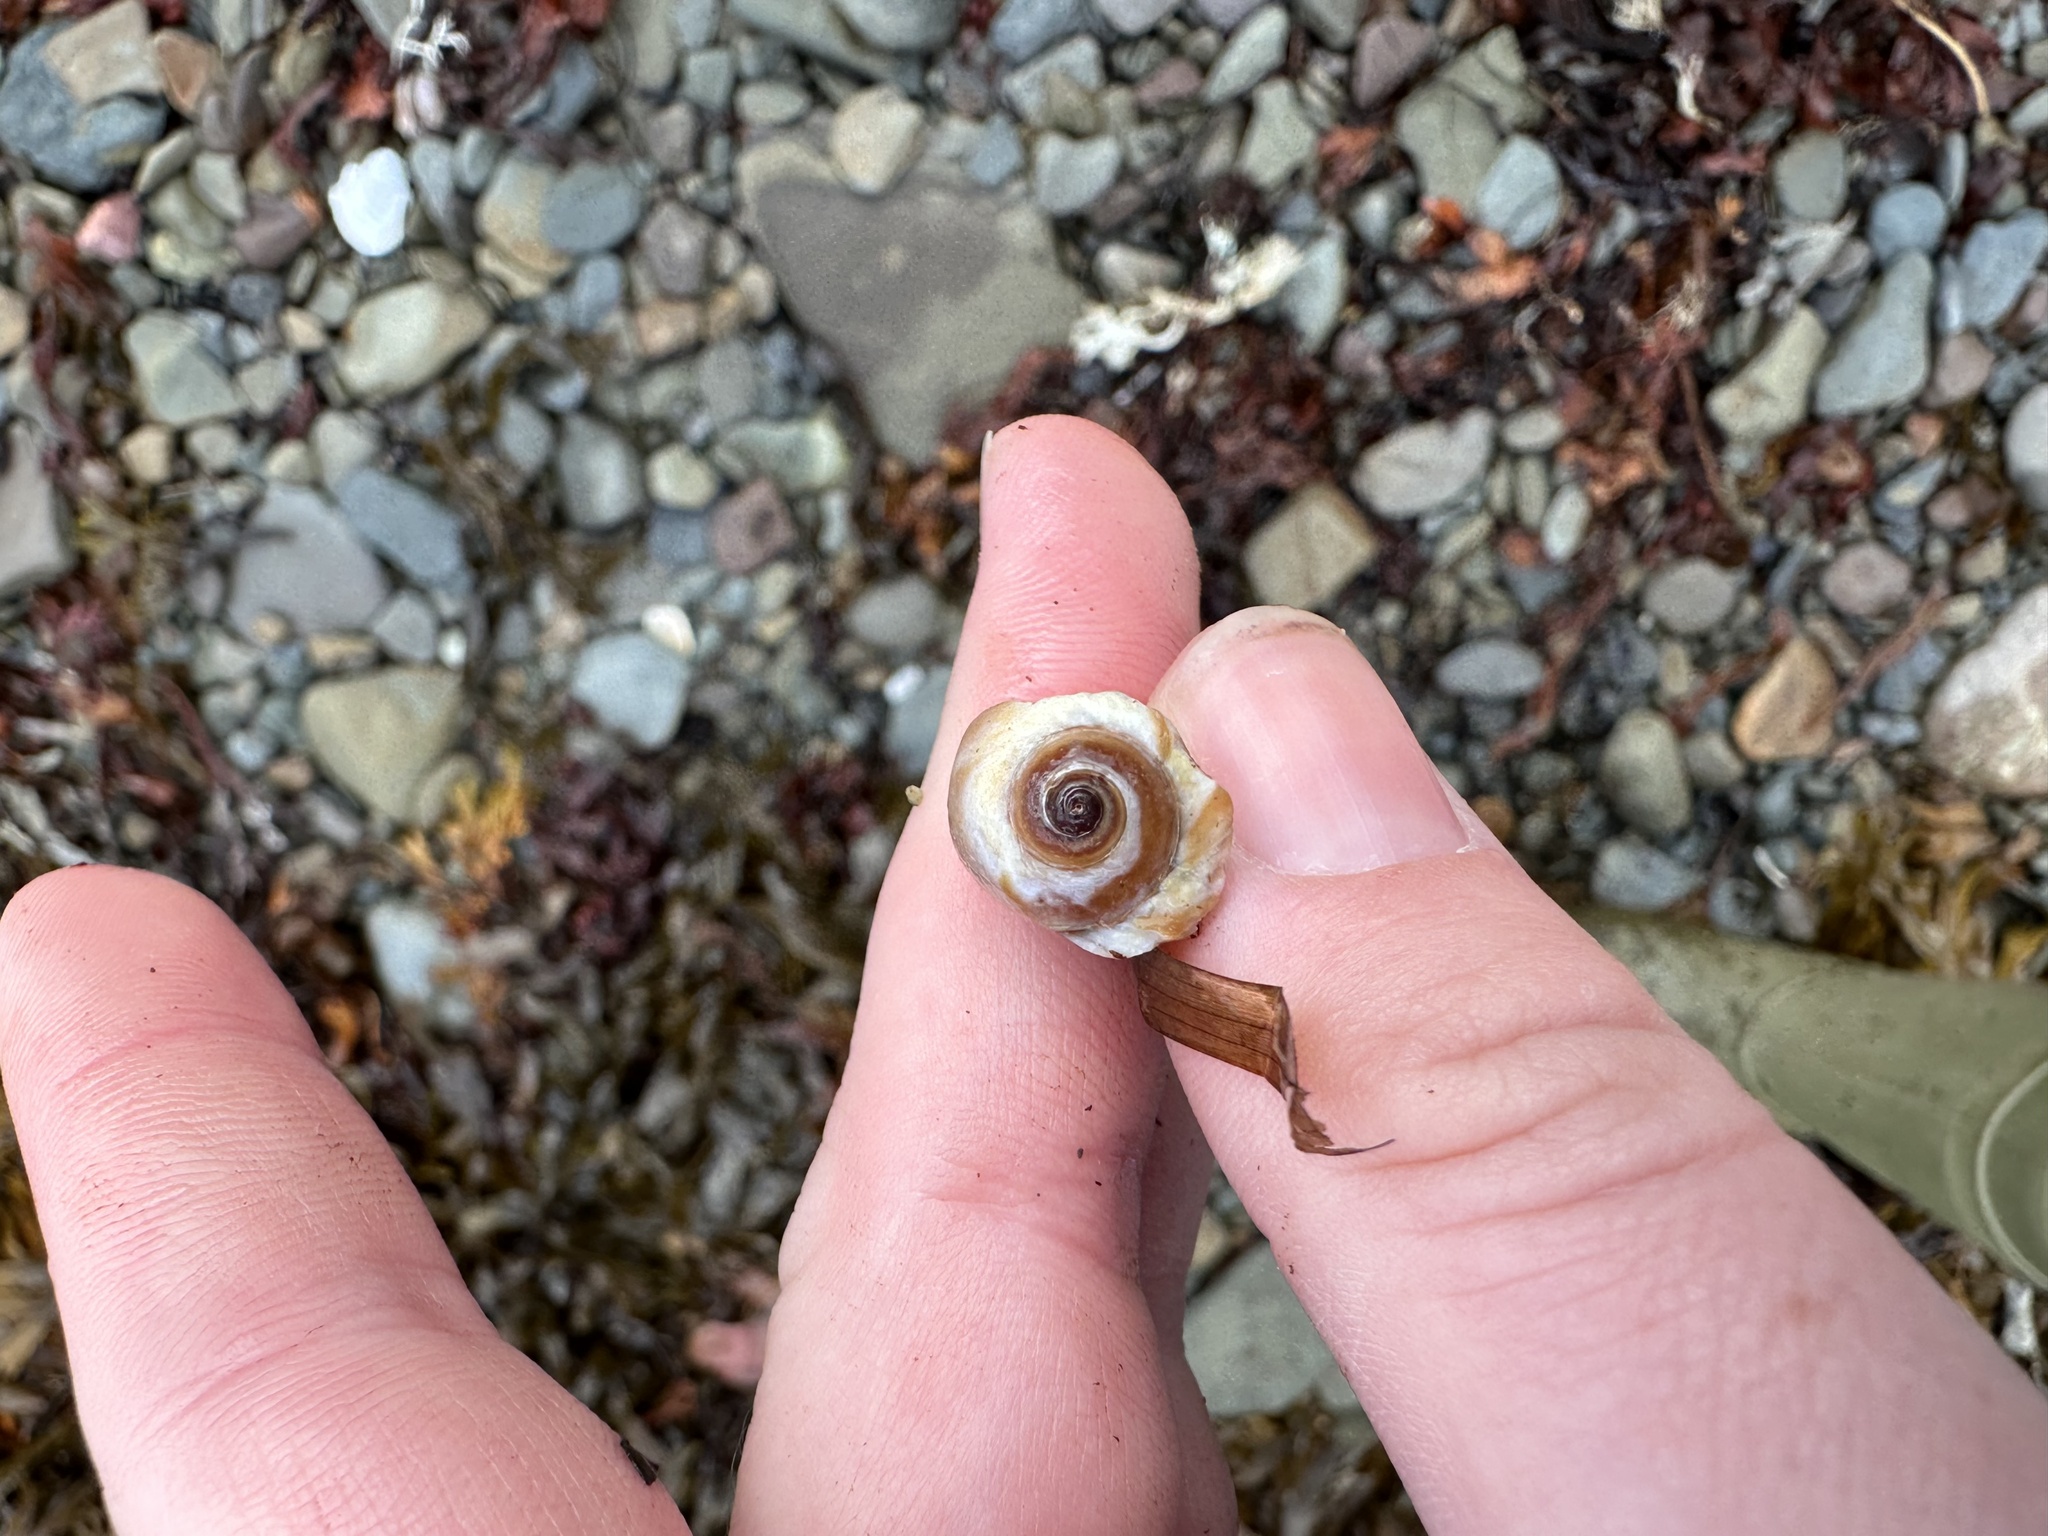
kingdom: Animalia
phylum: Mollusca
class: Gastropoda
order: Littorinimorpha
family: Naticidae
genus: Euspira
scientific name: Euspira heros
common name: Common northern moonsnail
